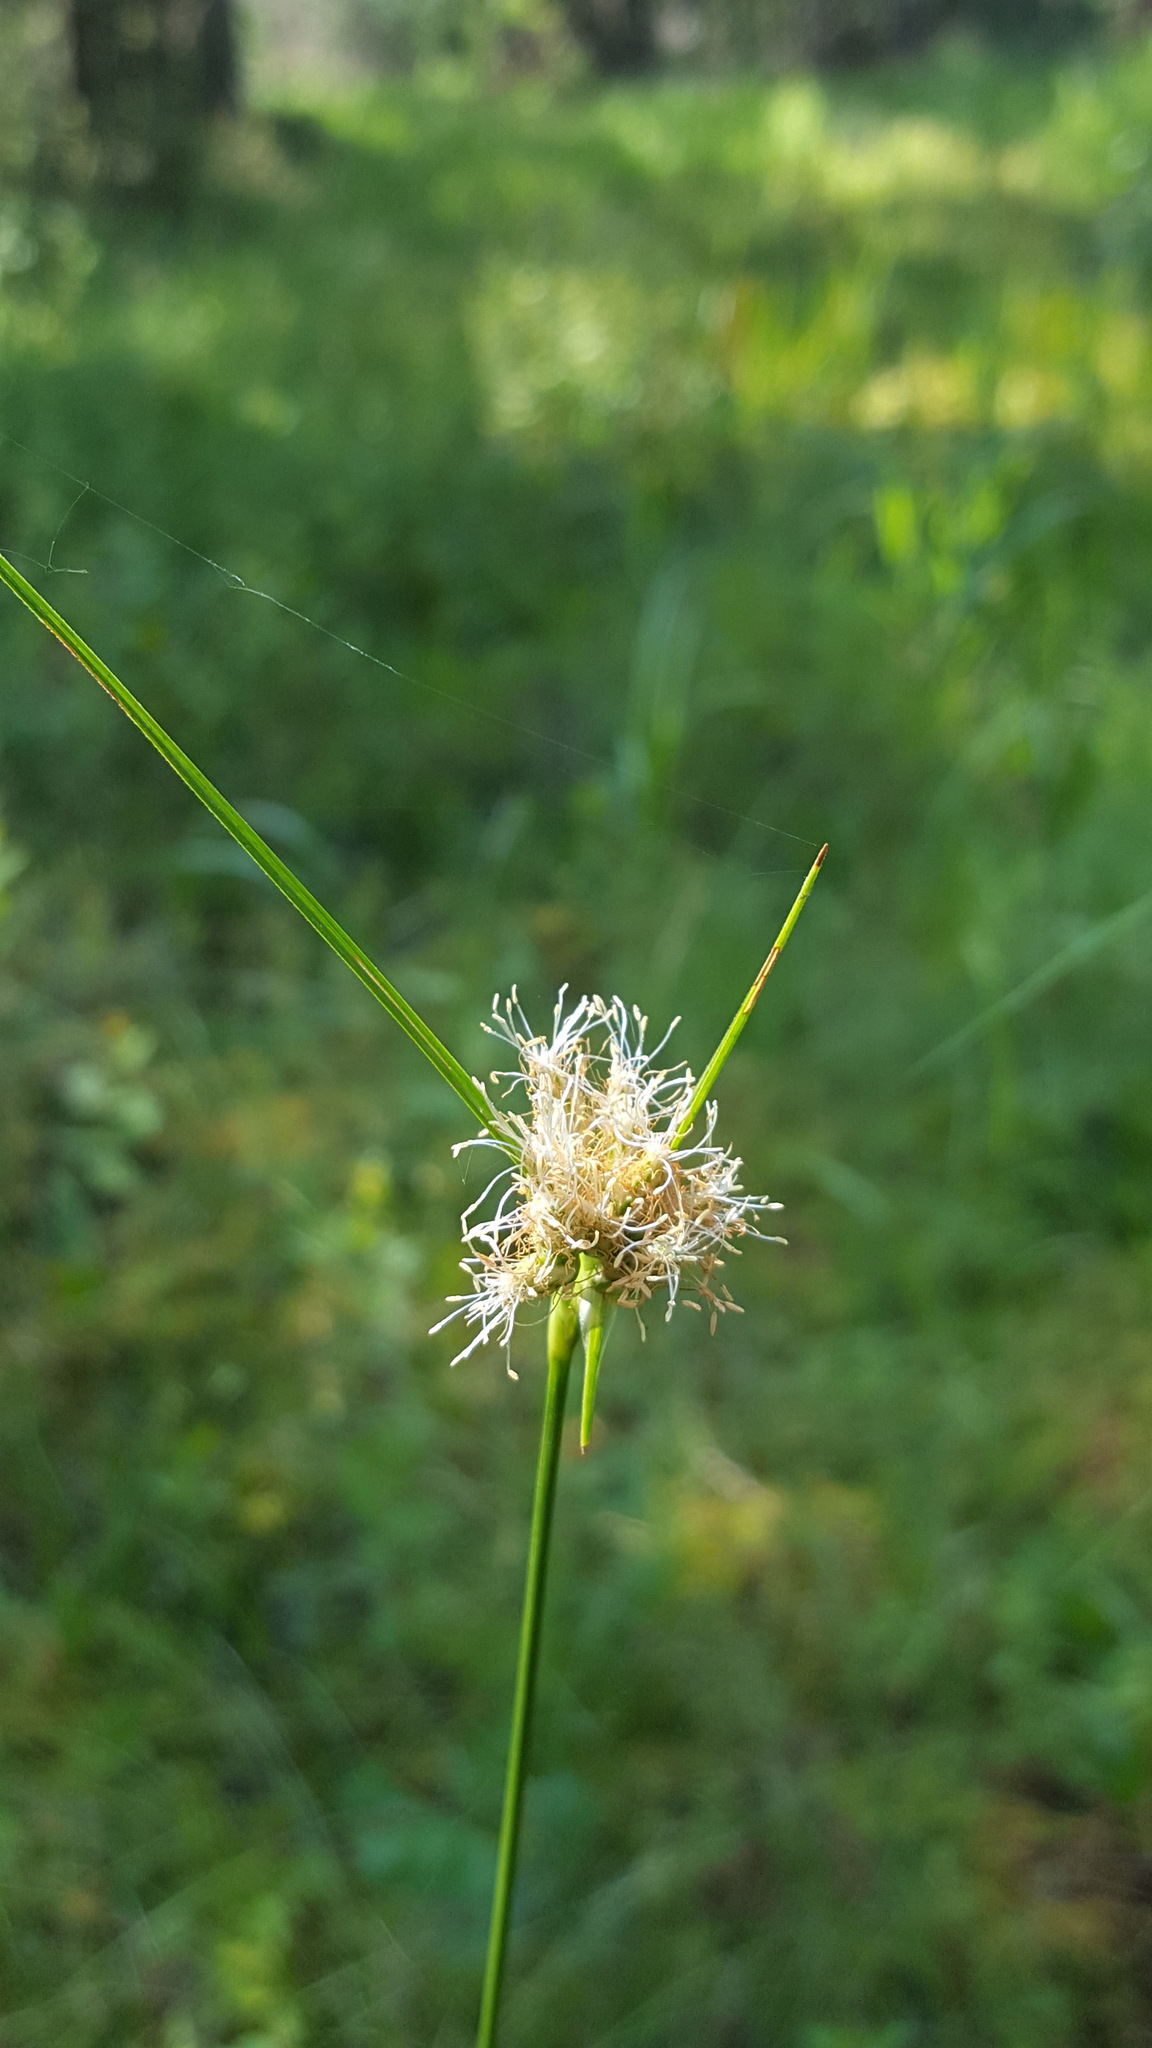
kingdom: Plantae
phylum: Tracheophyta
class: Liliopsida
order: Poales
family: Cyperaceae
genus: Eriophorum
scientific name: Eriophorum virginicum
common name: Tawny cottongrass
